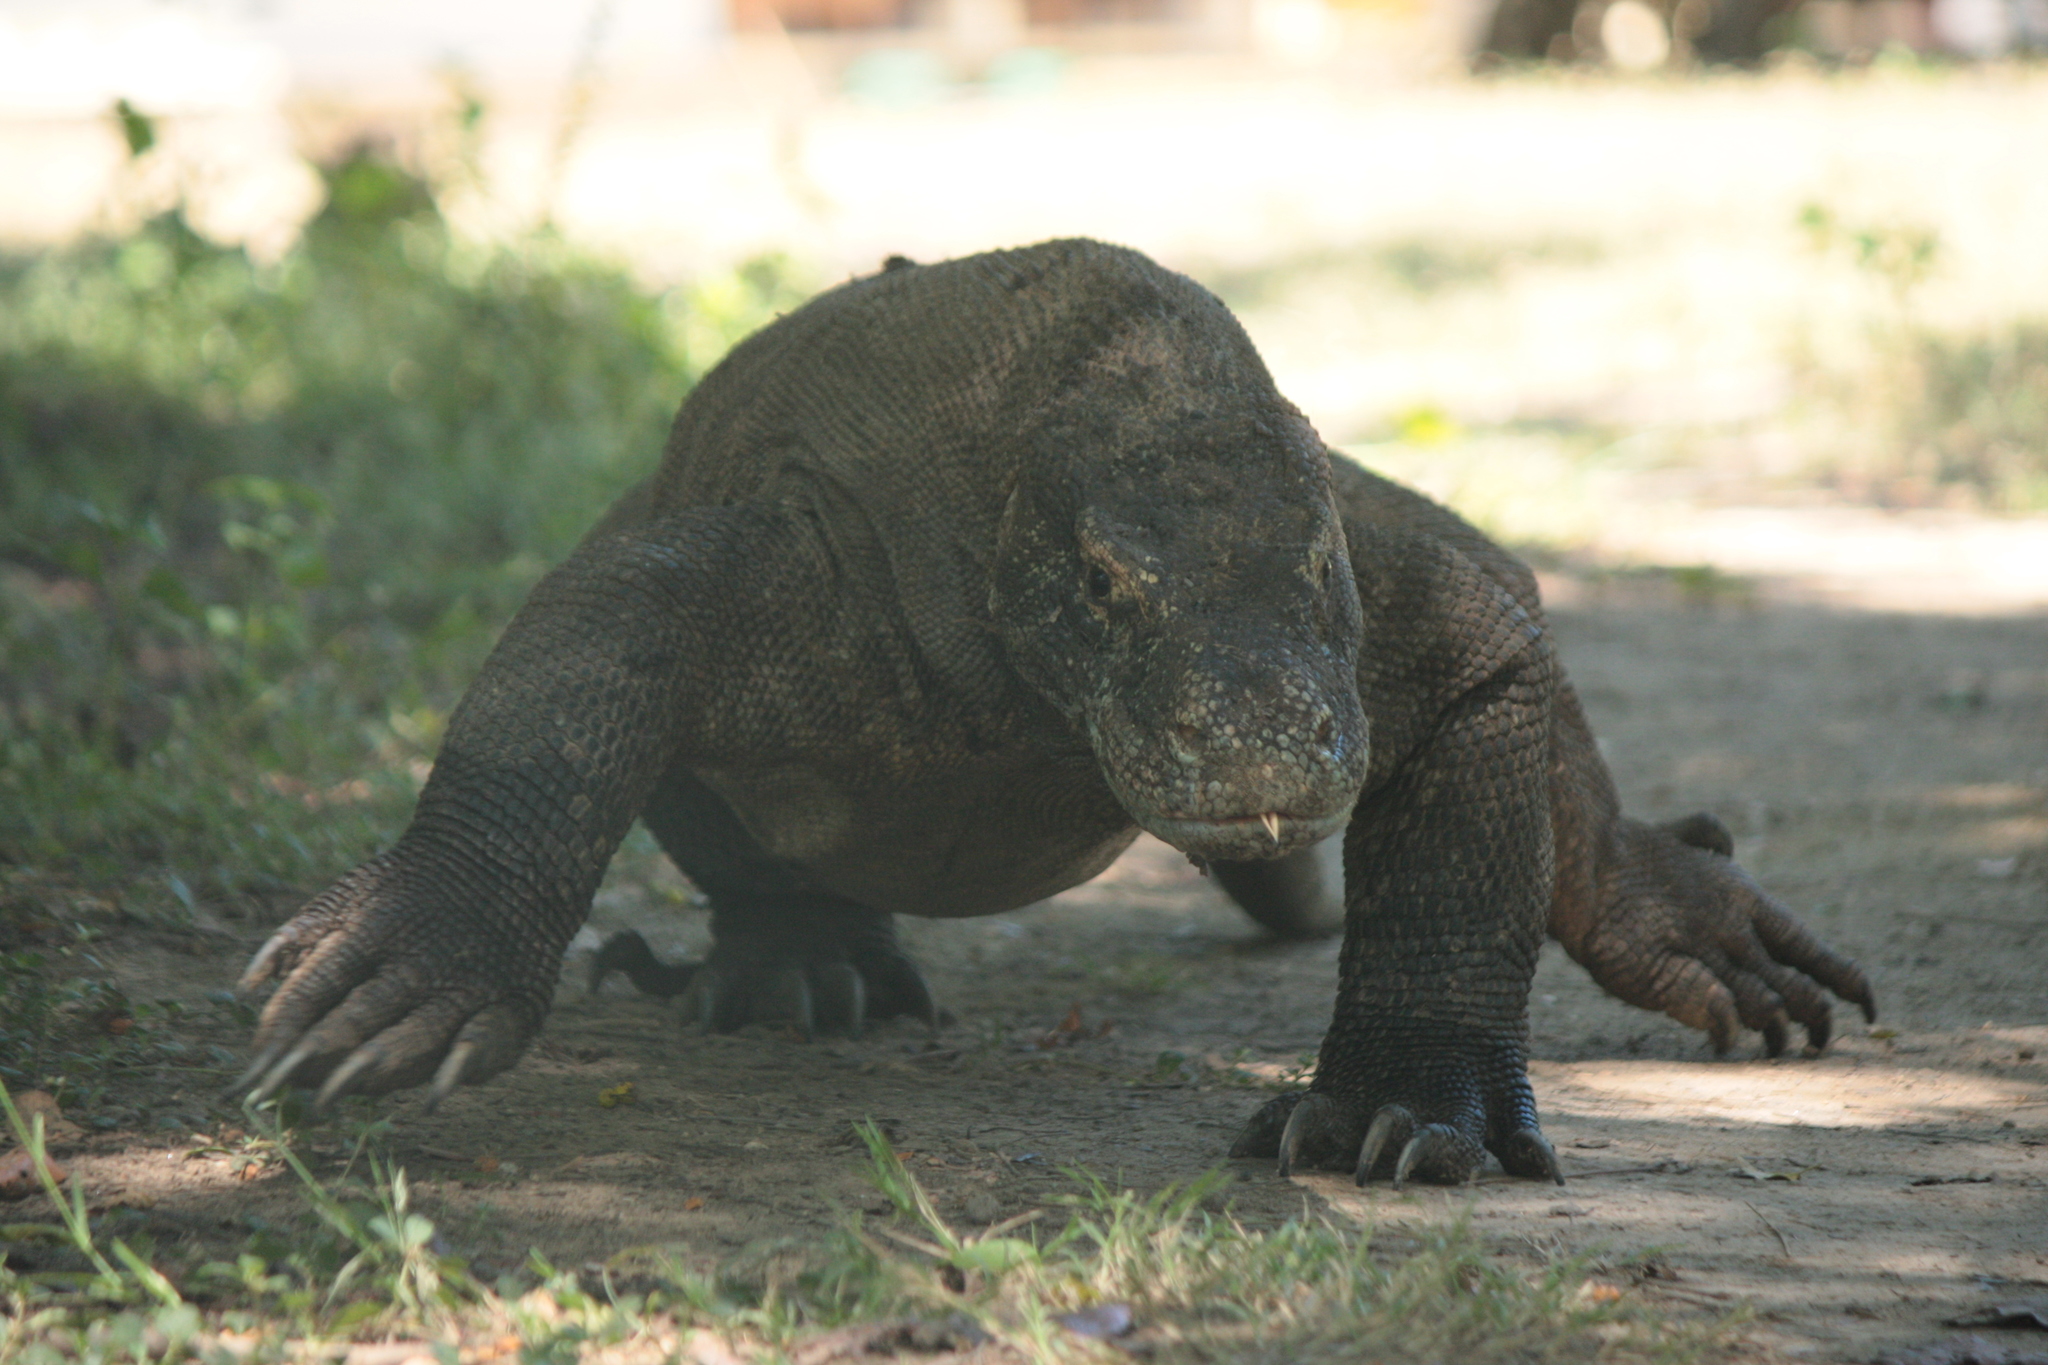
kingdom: Animalia
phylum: Chordata
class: Squamata
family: Varanidae
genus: Varanus
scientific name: Varanus komodoensis
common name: Komodo dragon
